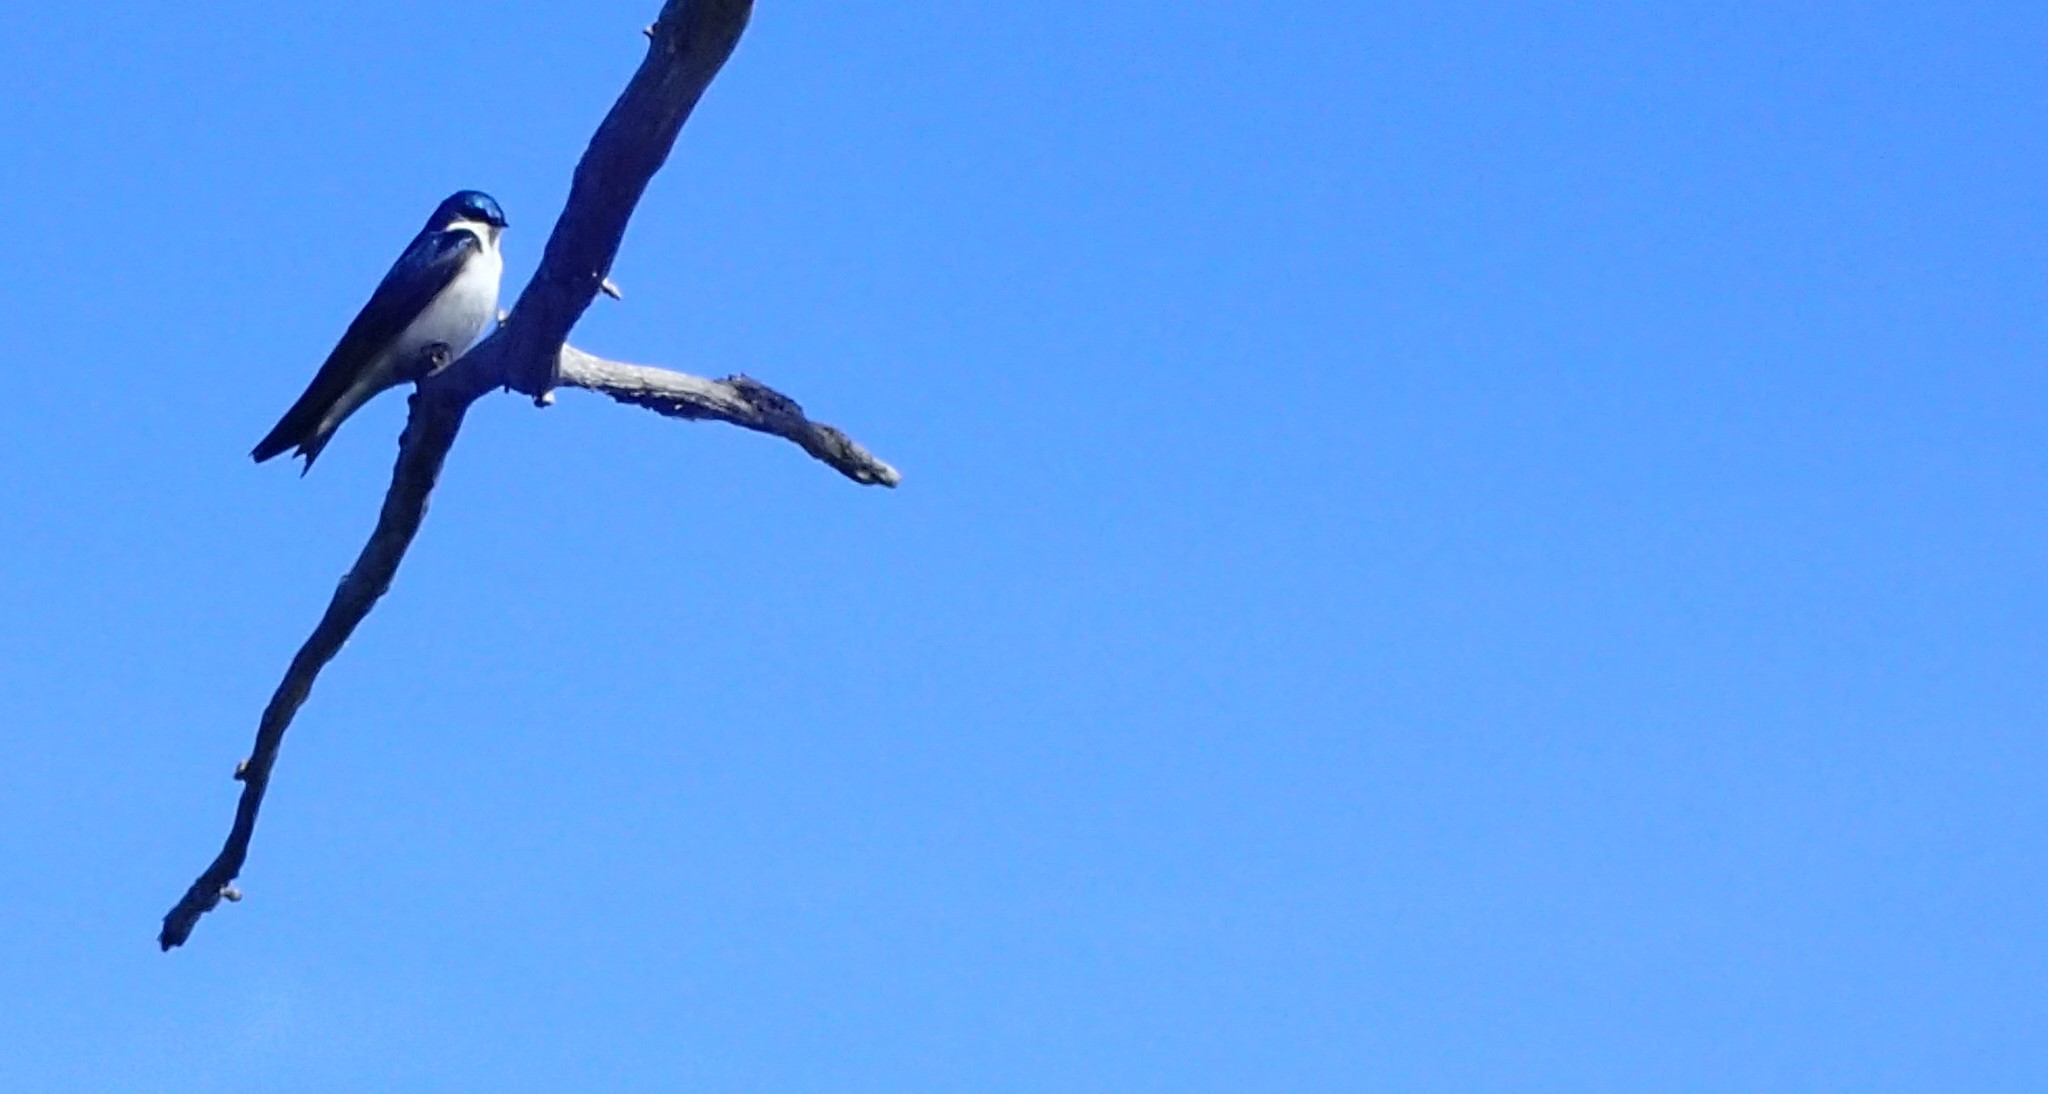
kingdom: Animalia
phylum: Chordata
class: Aves
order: Passeriformes
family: Hirundinidae
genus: Tachycineta
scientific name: Tachycineta bicolor
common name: Tree swallow
